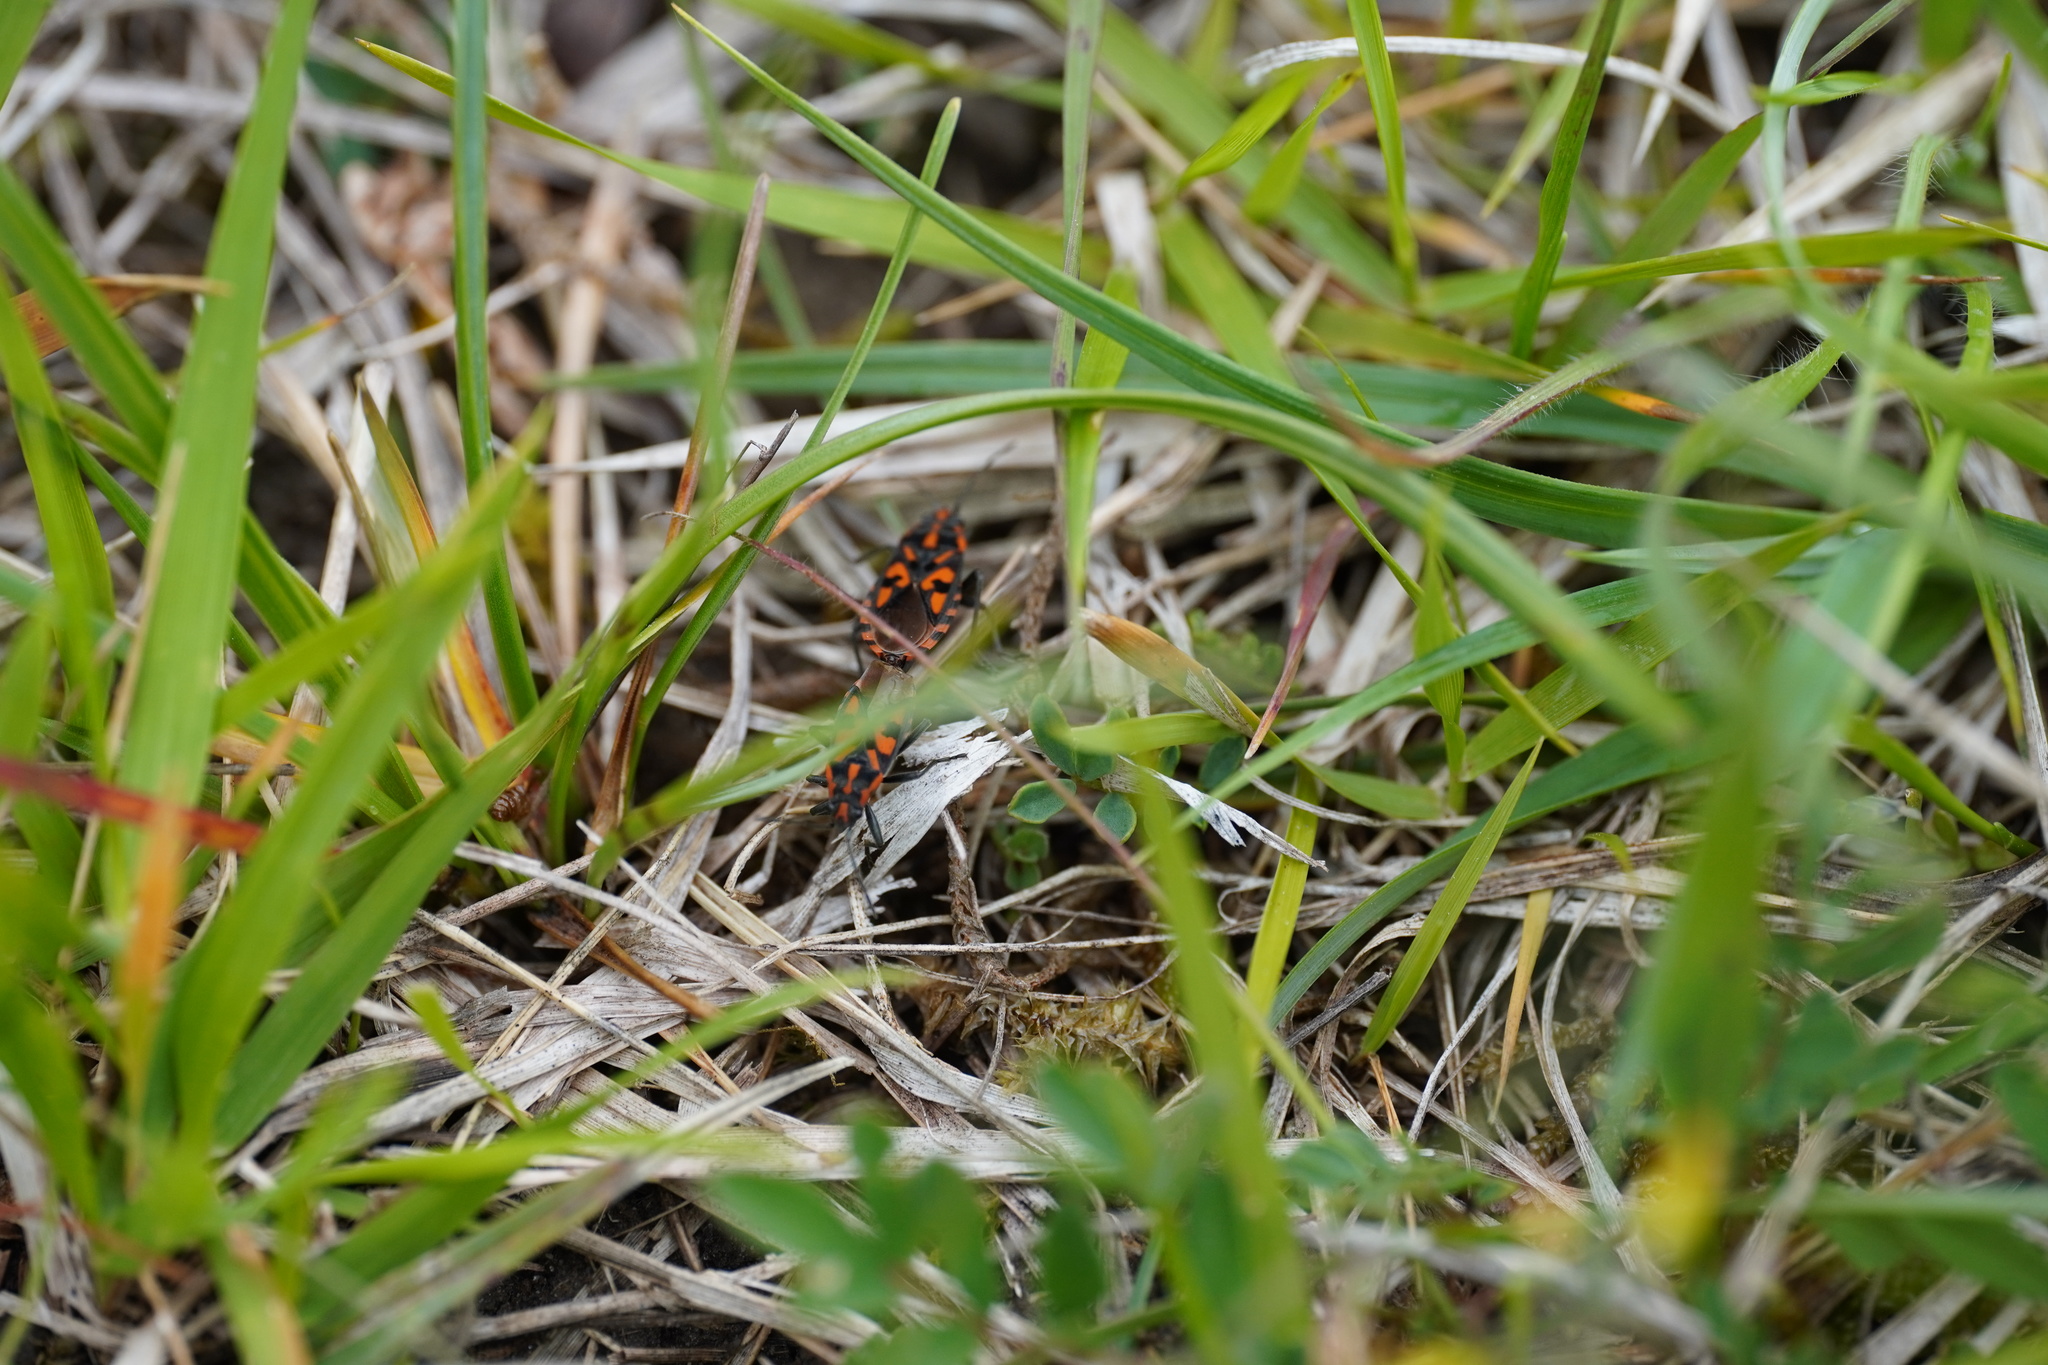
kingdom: Animalia
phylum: Arthropoda
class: Insecta
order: Hemiptera
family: Lygaeidae
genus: Spilostethus
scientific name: Spilostethus saxatilis
